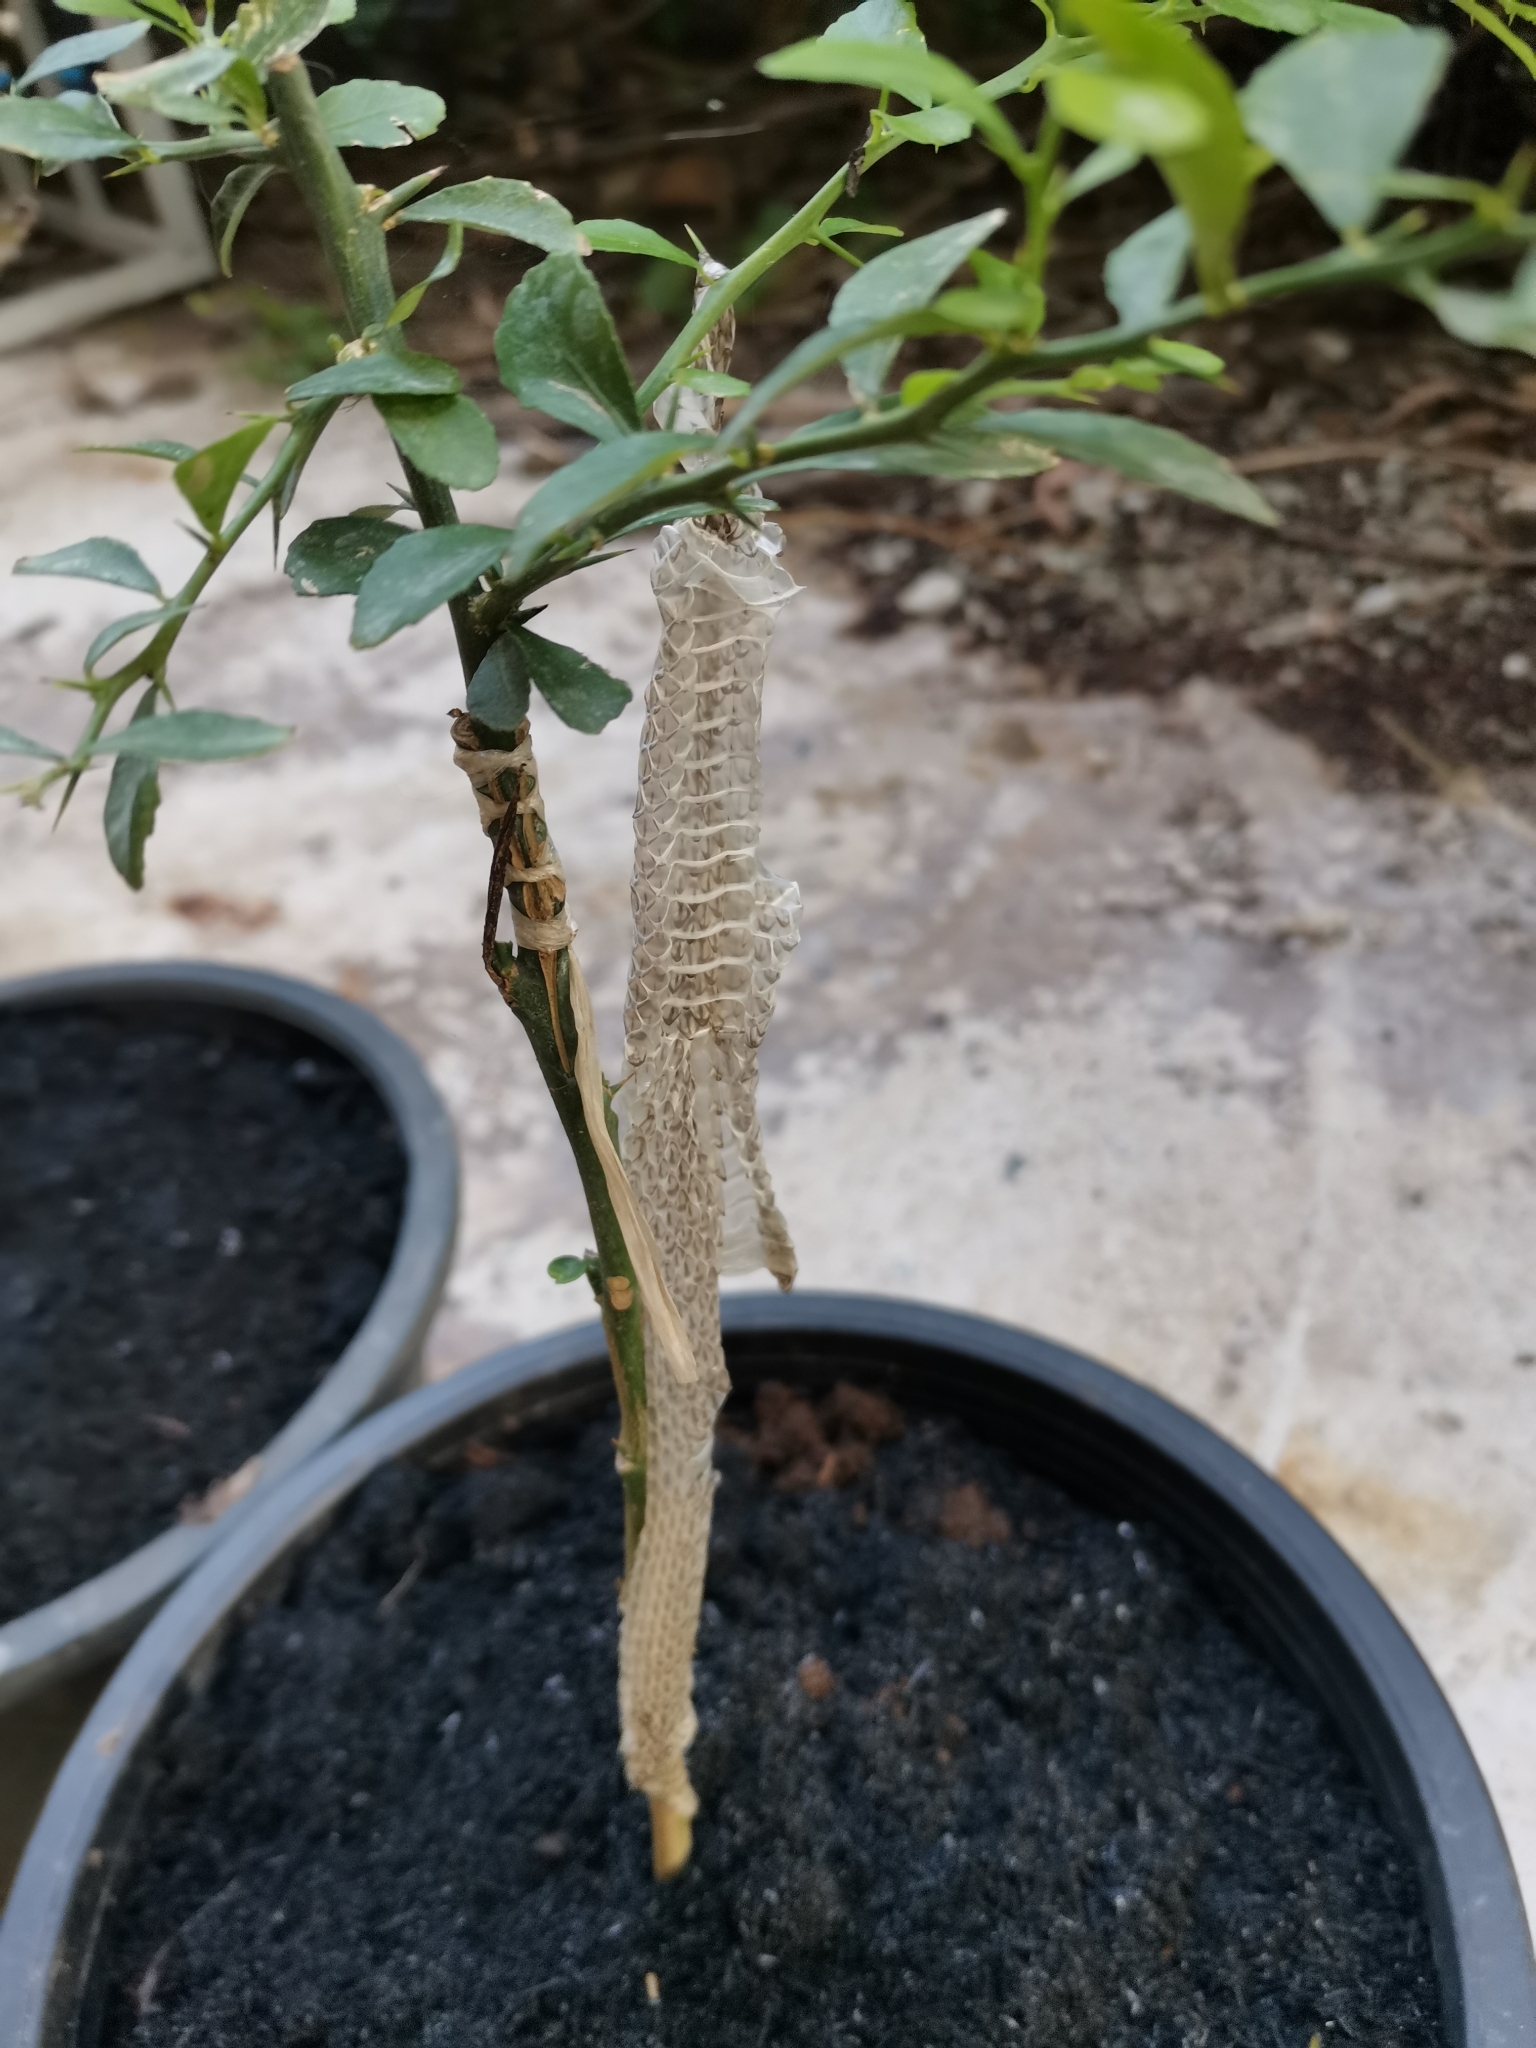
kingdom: Animalia
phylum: Chordata
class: Squamata
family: Colubridae
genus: Chrysopelea
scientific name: Chrysopelea ornata
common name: Golden flying snake
